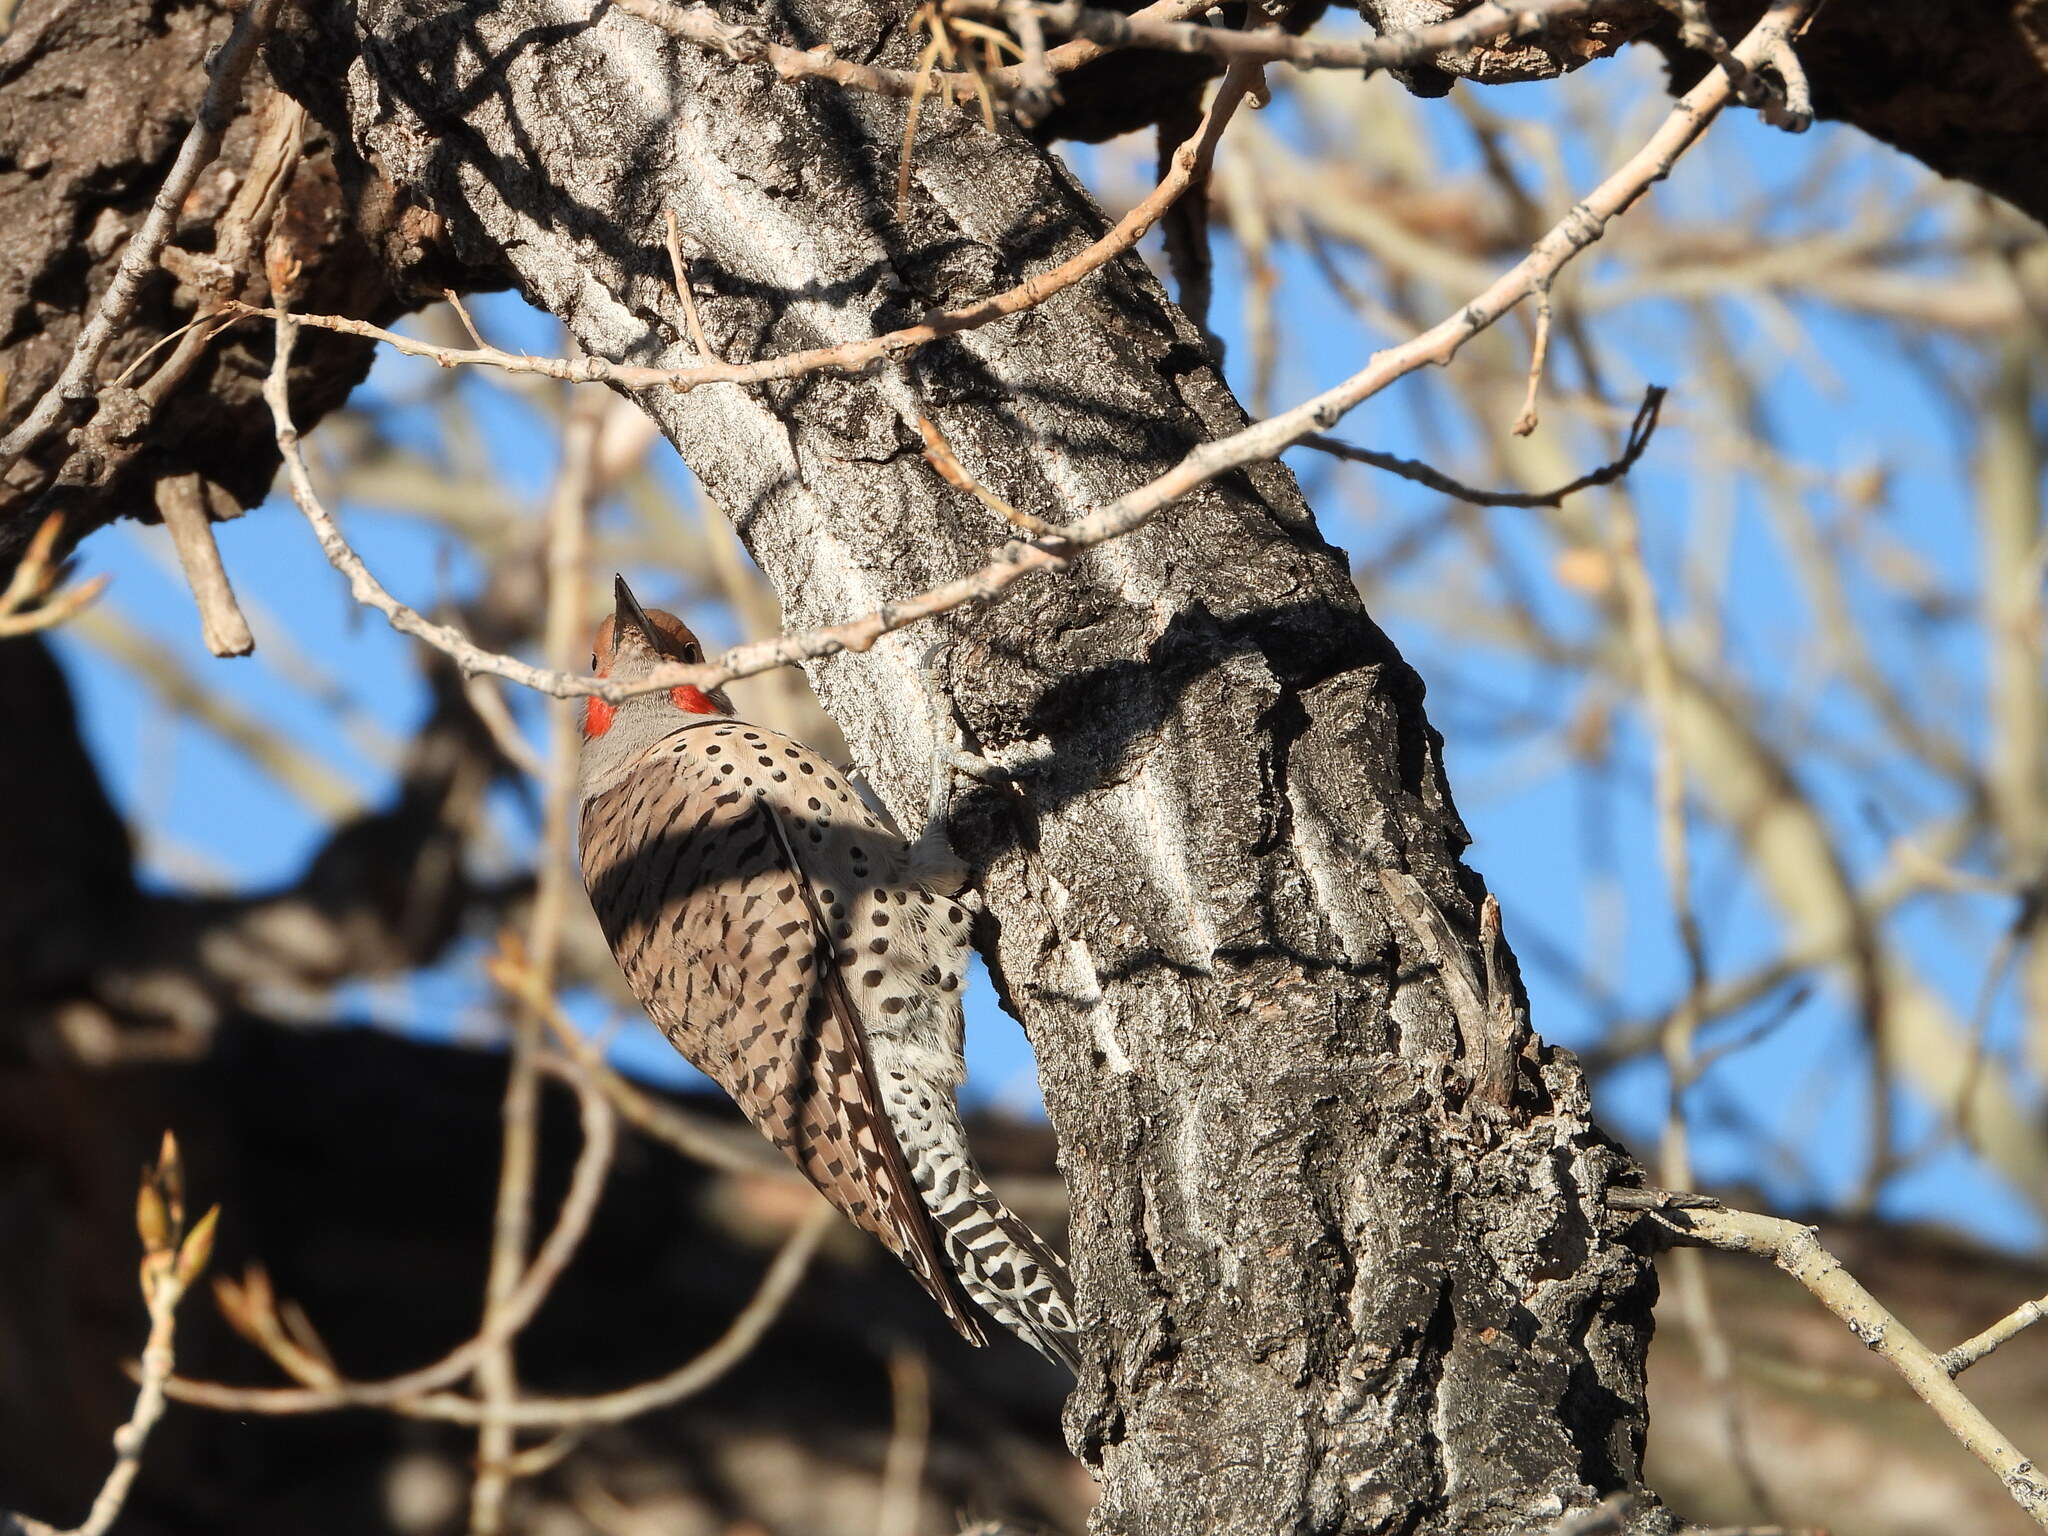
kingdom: Animalia
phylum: Chordata
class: Aves
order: Piciformes
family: Picidae
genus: Colaptes
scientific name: Colaptes auratus
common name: Northern flicker
